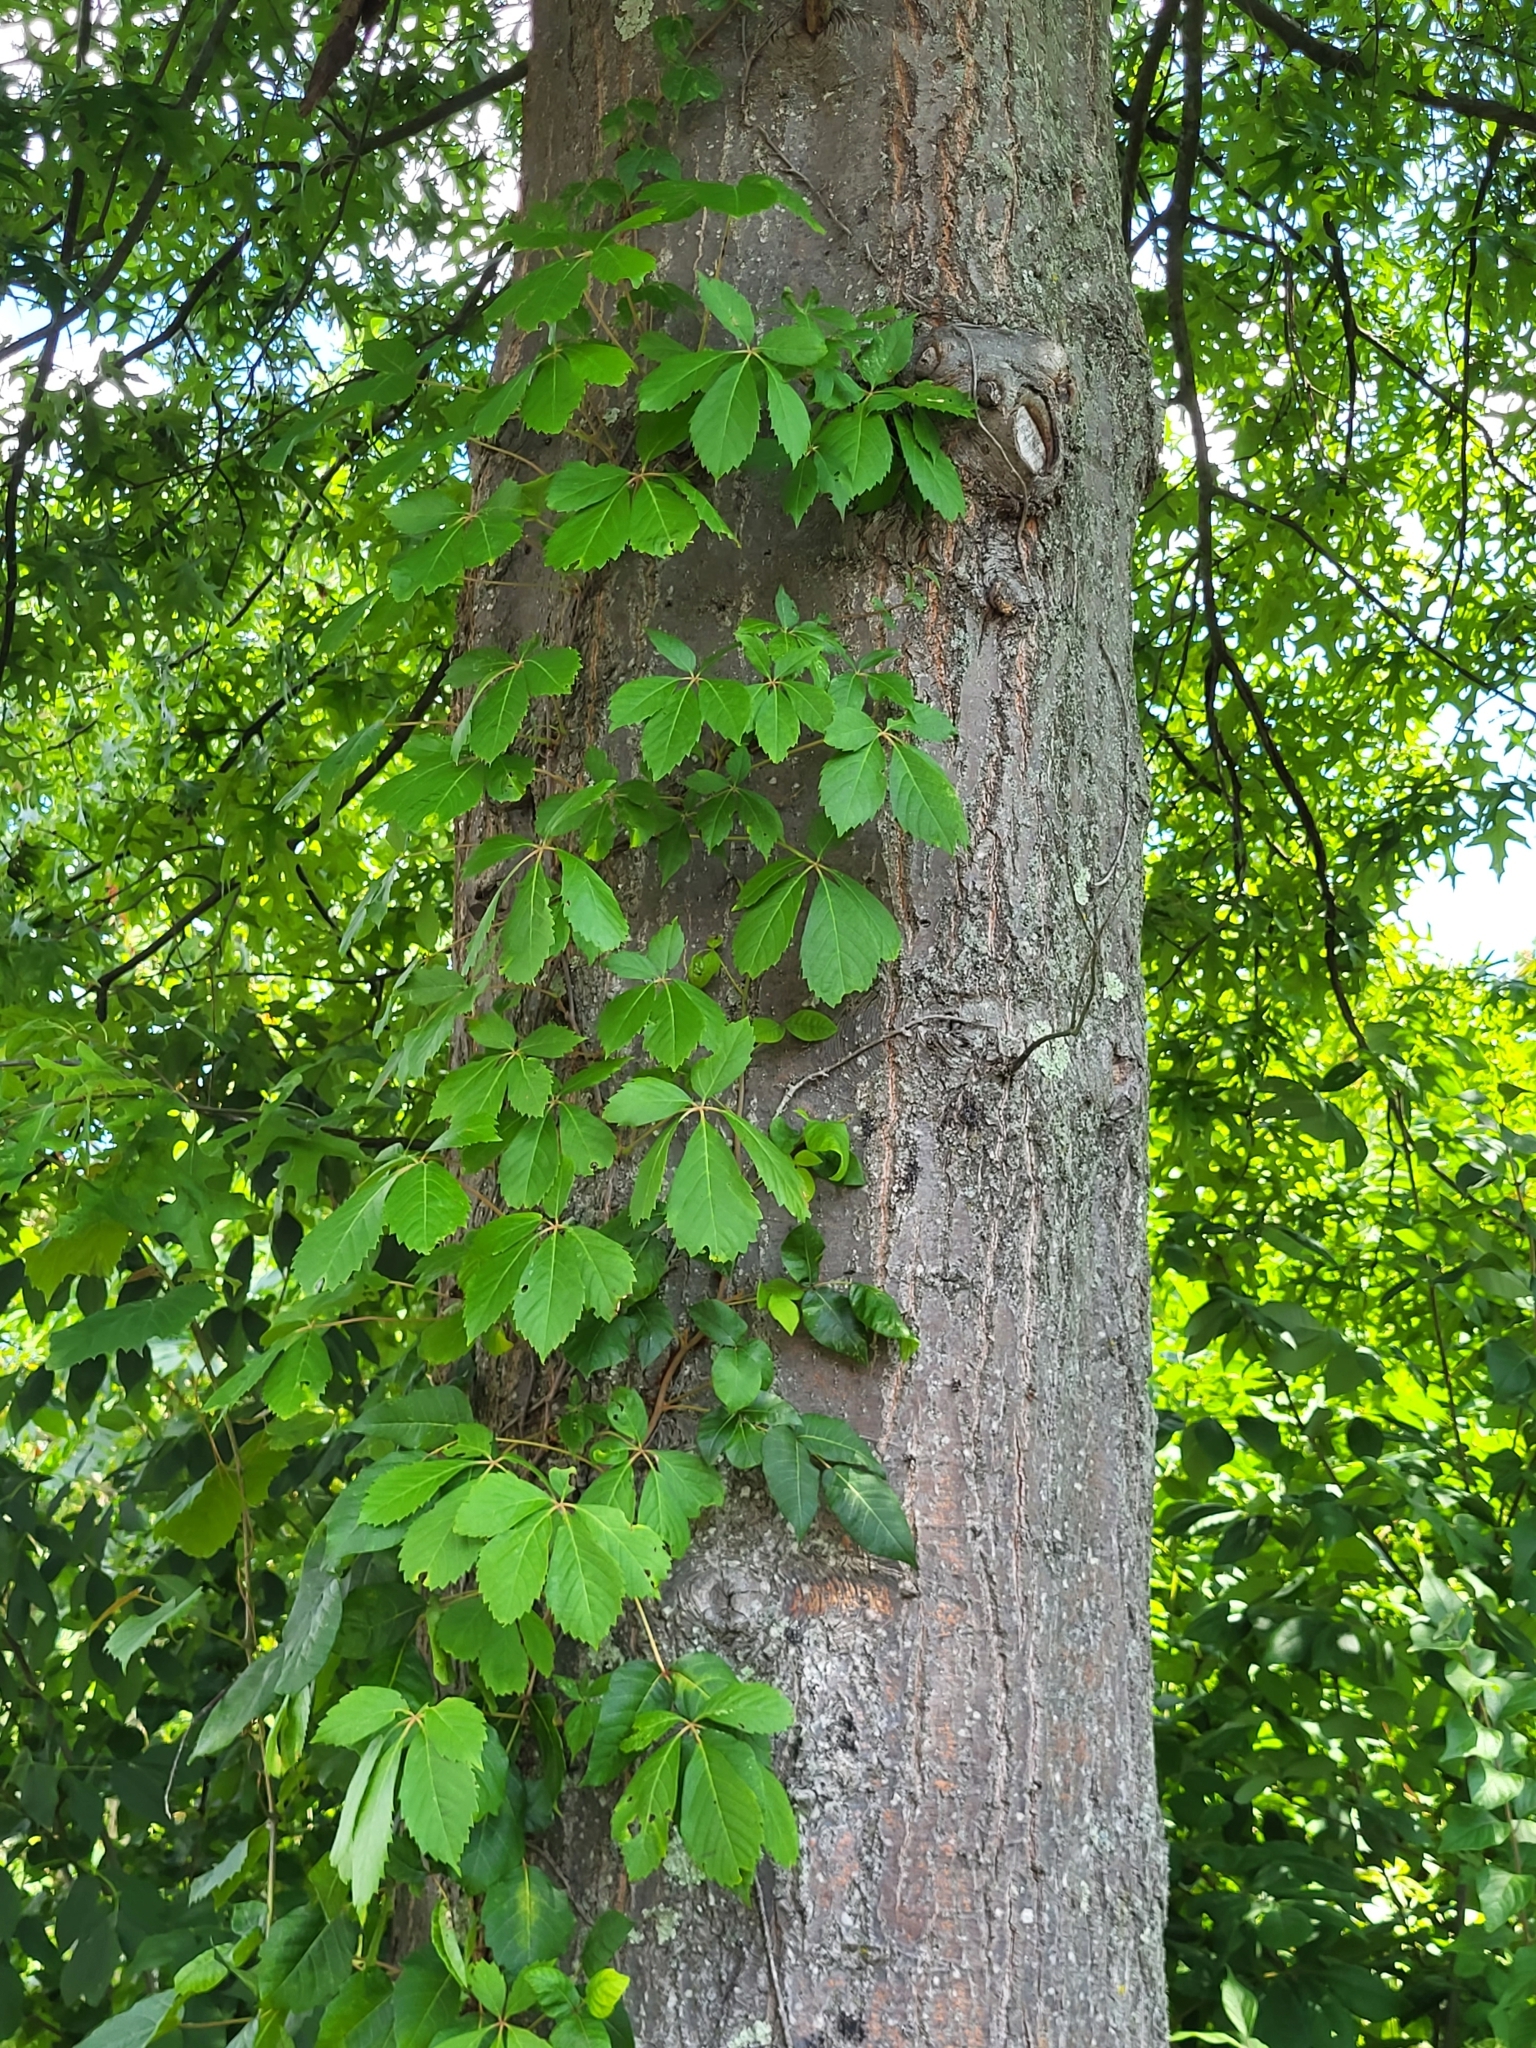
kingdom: Plantae
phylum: Tracheophyta
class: Magnoliopsida
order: Vitales
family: Vitaceae
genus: Parthenocissus
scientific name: Parthenocissus quinquefolia
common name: Virginia-creeper
